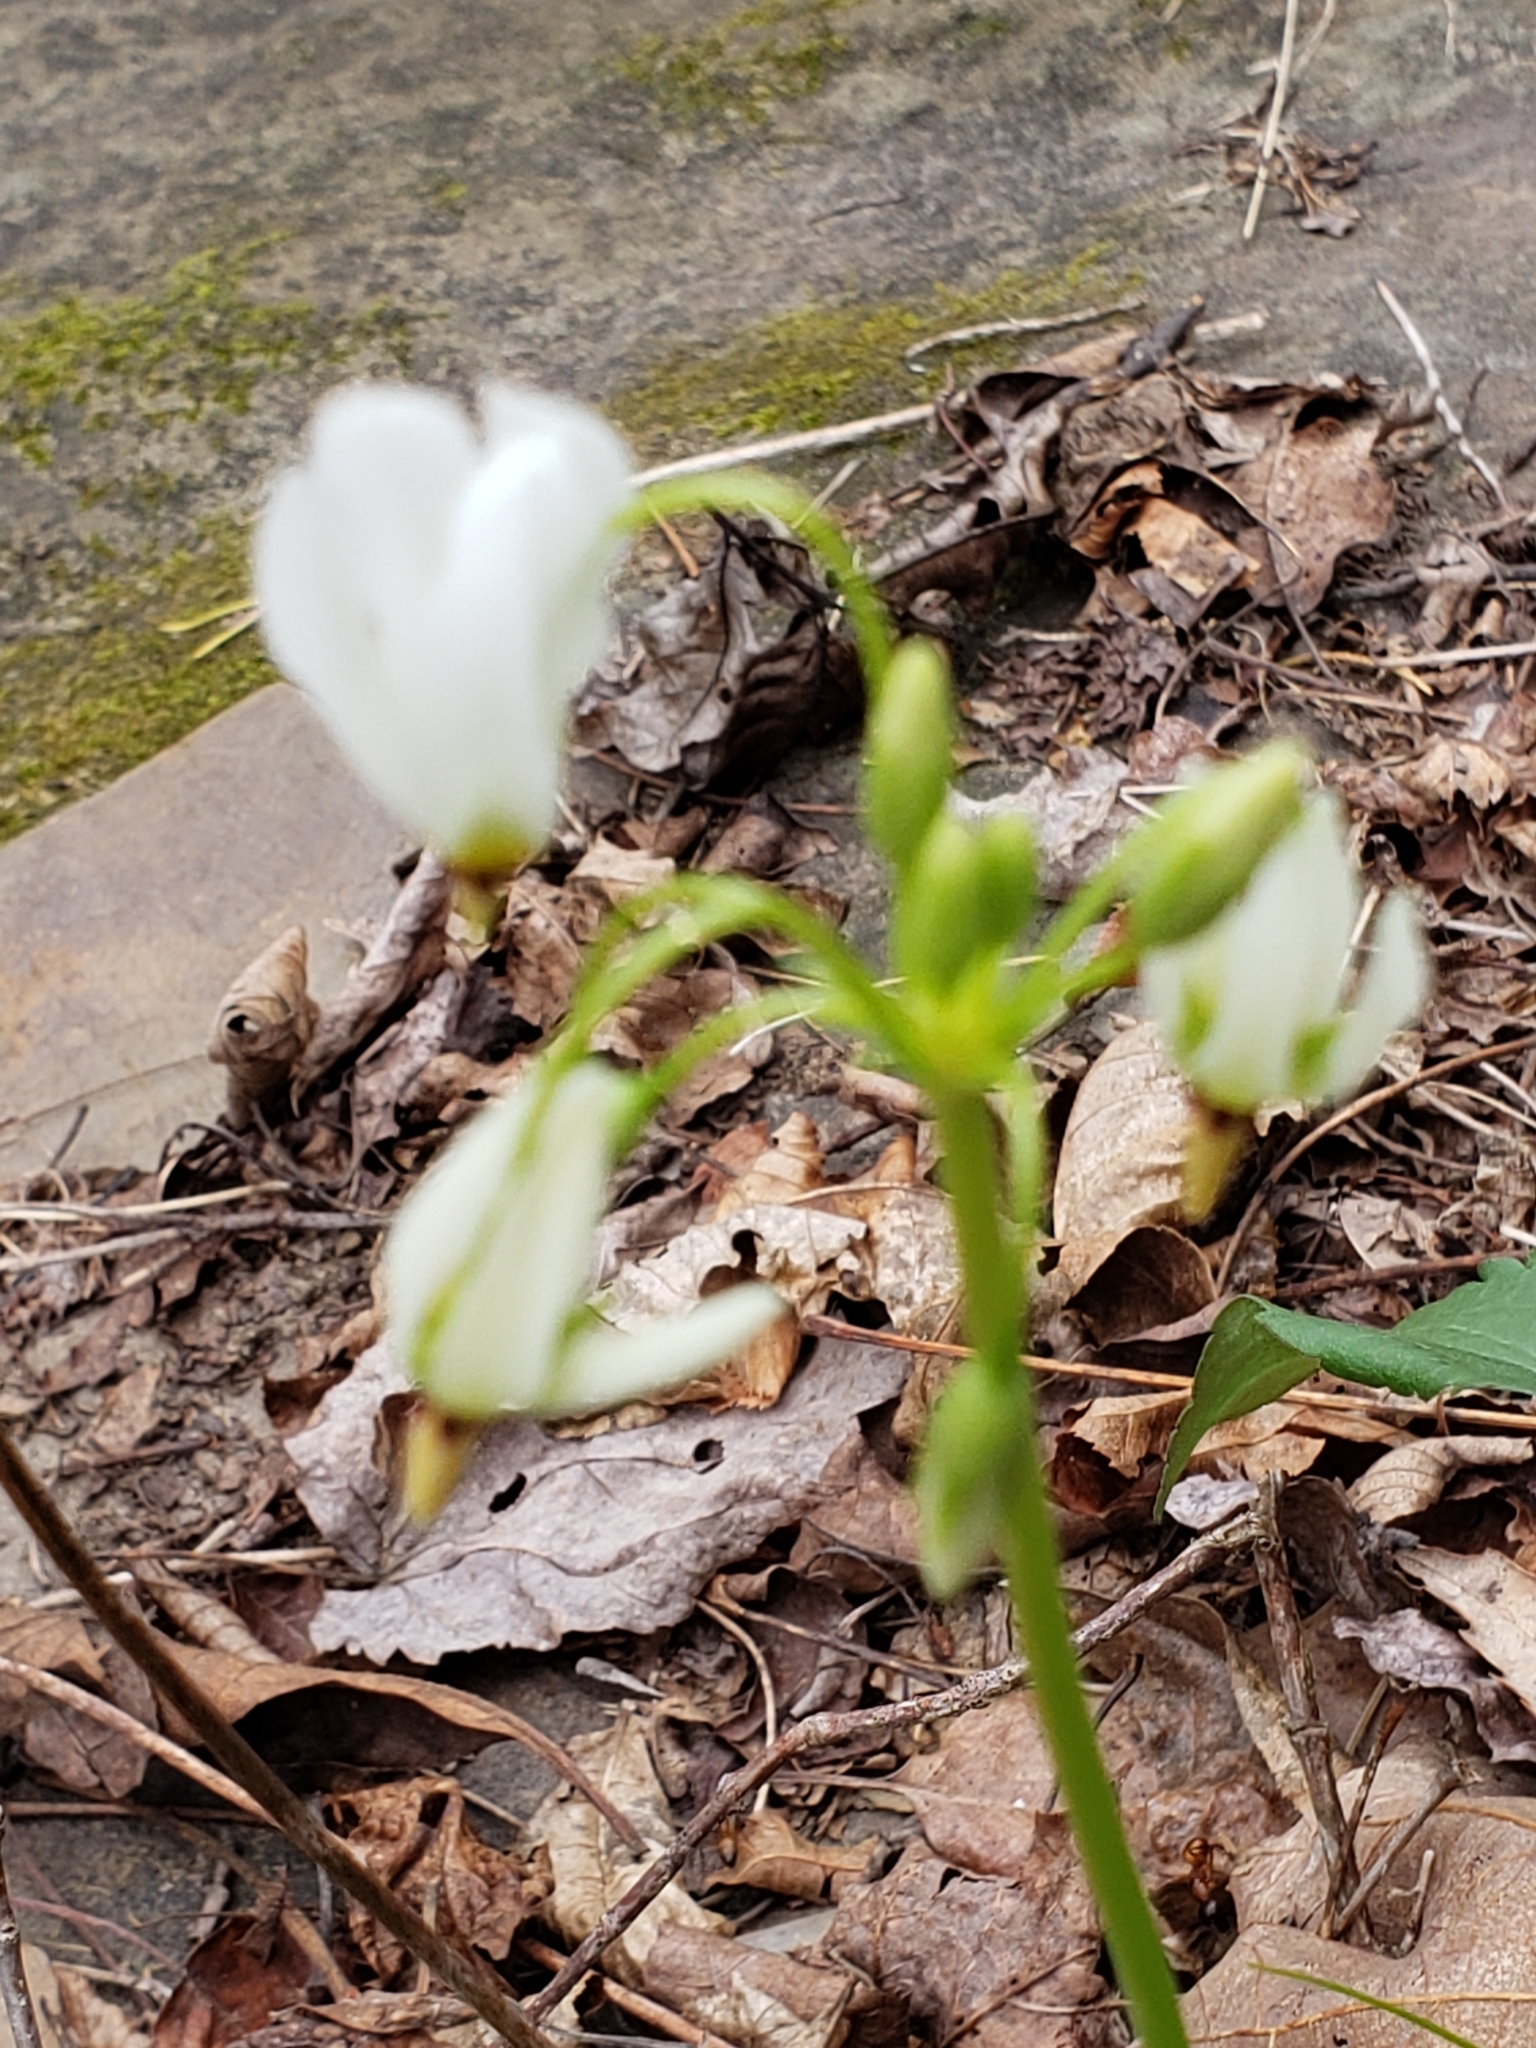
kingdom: Plantae
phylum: Tracheophyta
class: Magnoliopsida
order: Ericales
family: Primulaceae
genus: Dodecatheon
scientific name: Dodecatheon meadia
